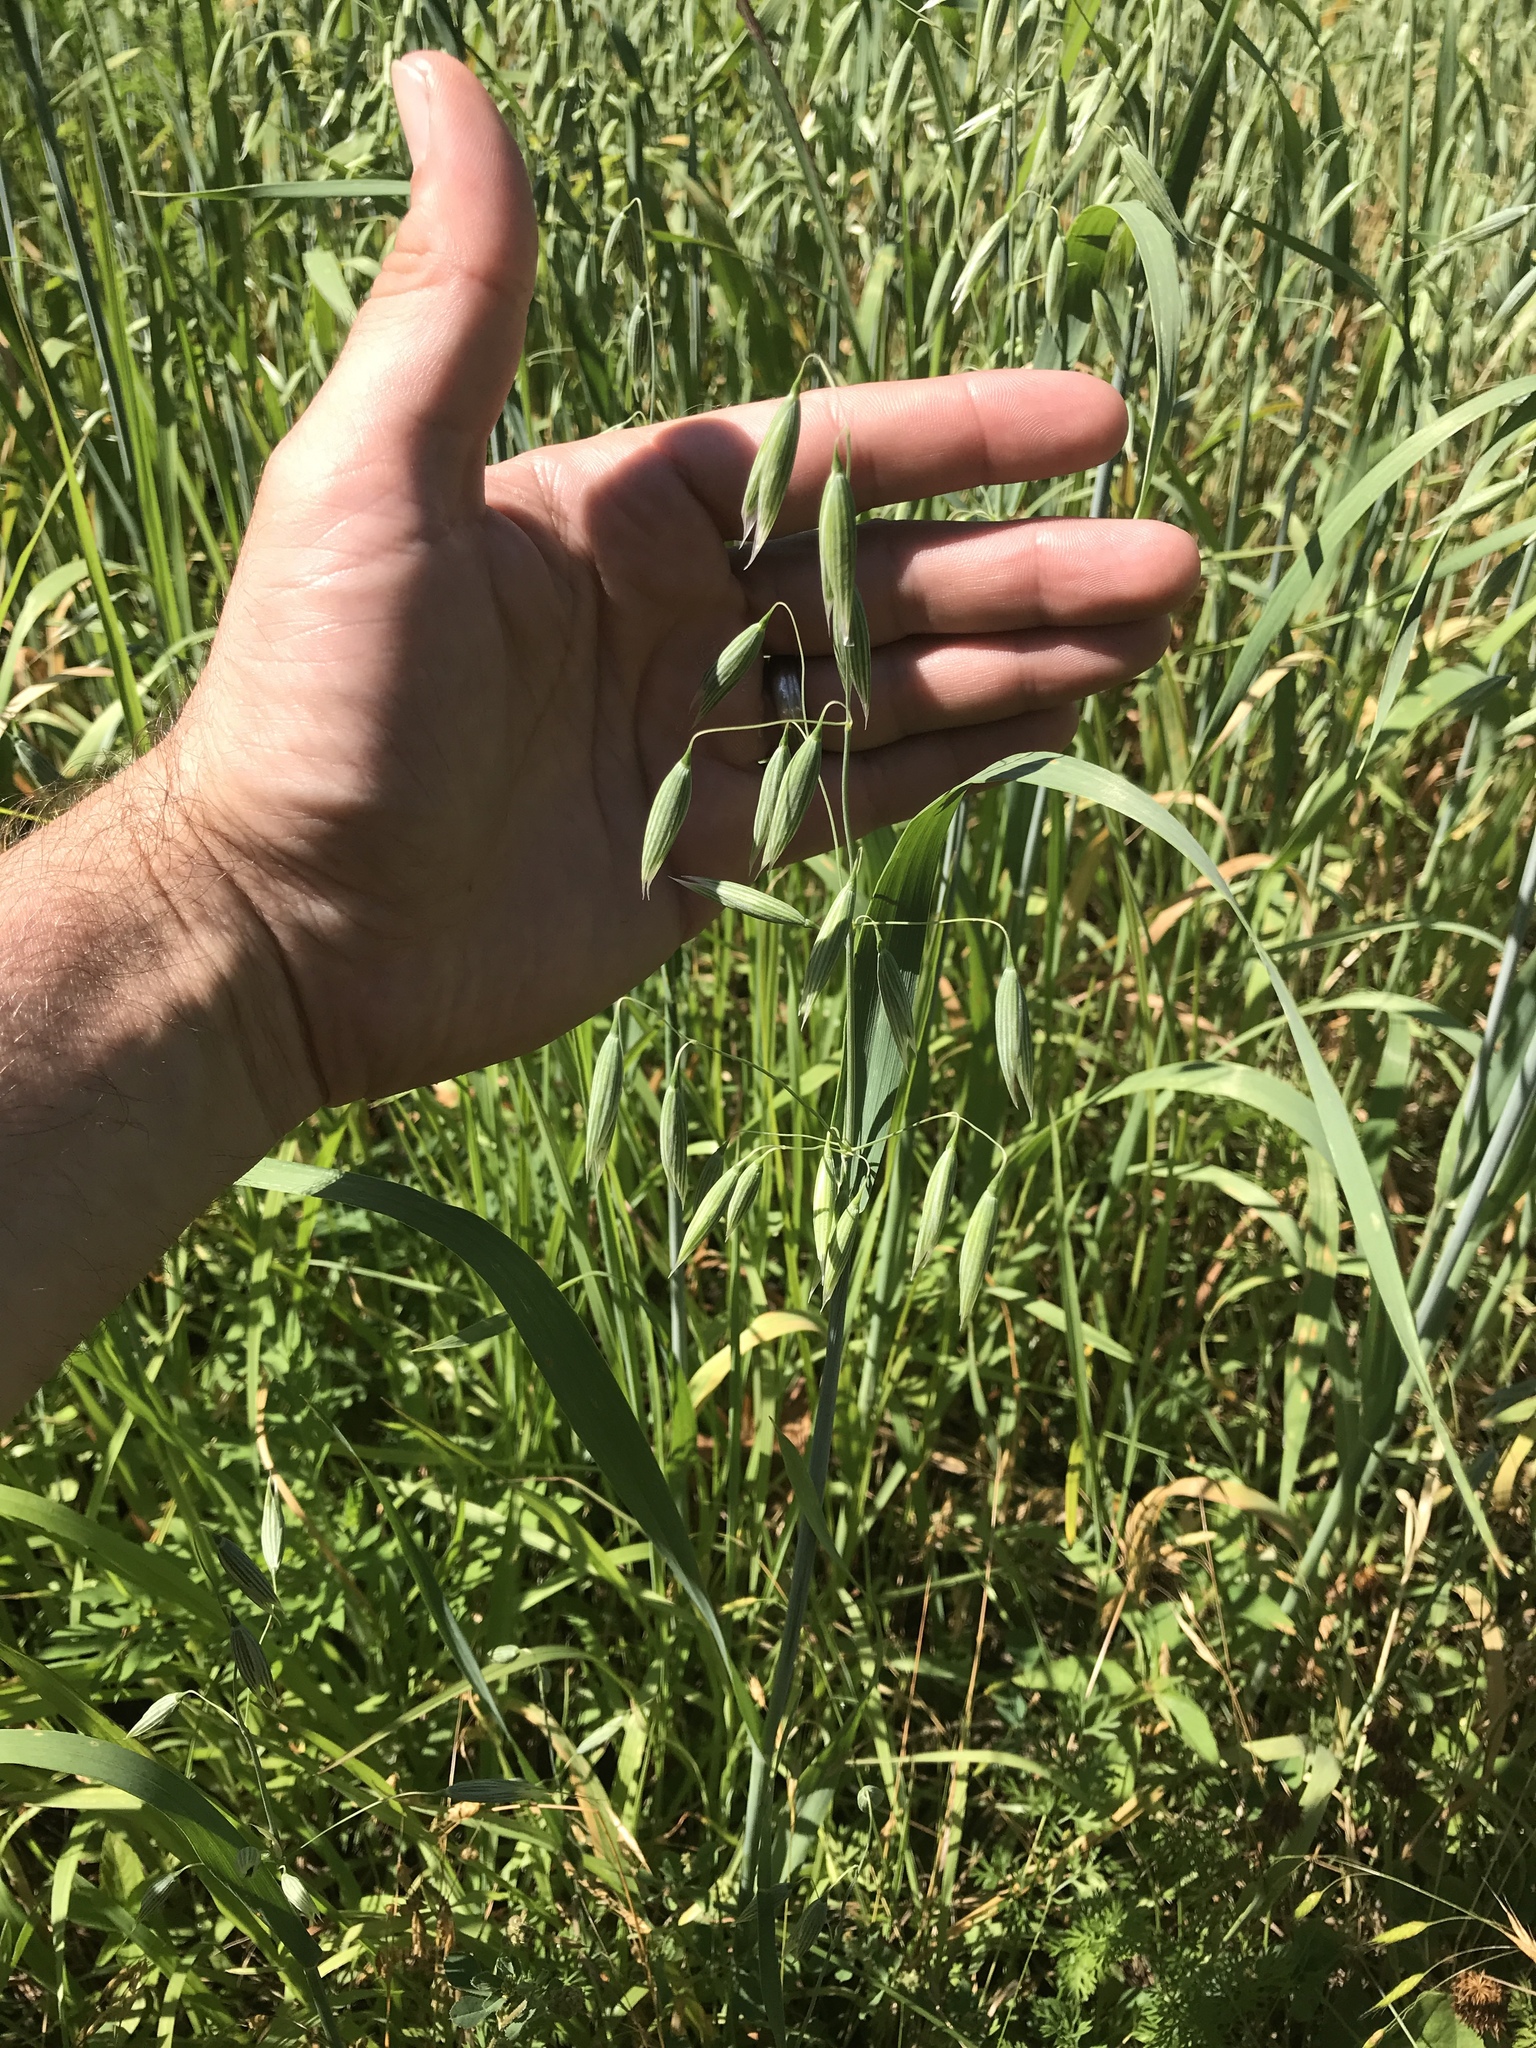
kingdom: Plantae
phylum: Tracheophyta
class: Liliopsida
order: Poales
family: Poaceae
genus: Avena
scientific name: Avena sativa
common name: Oat
